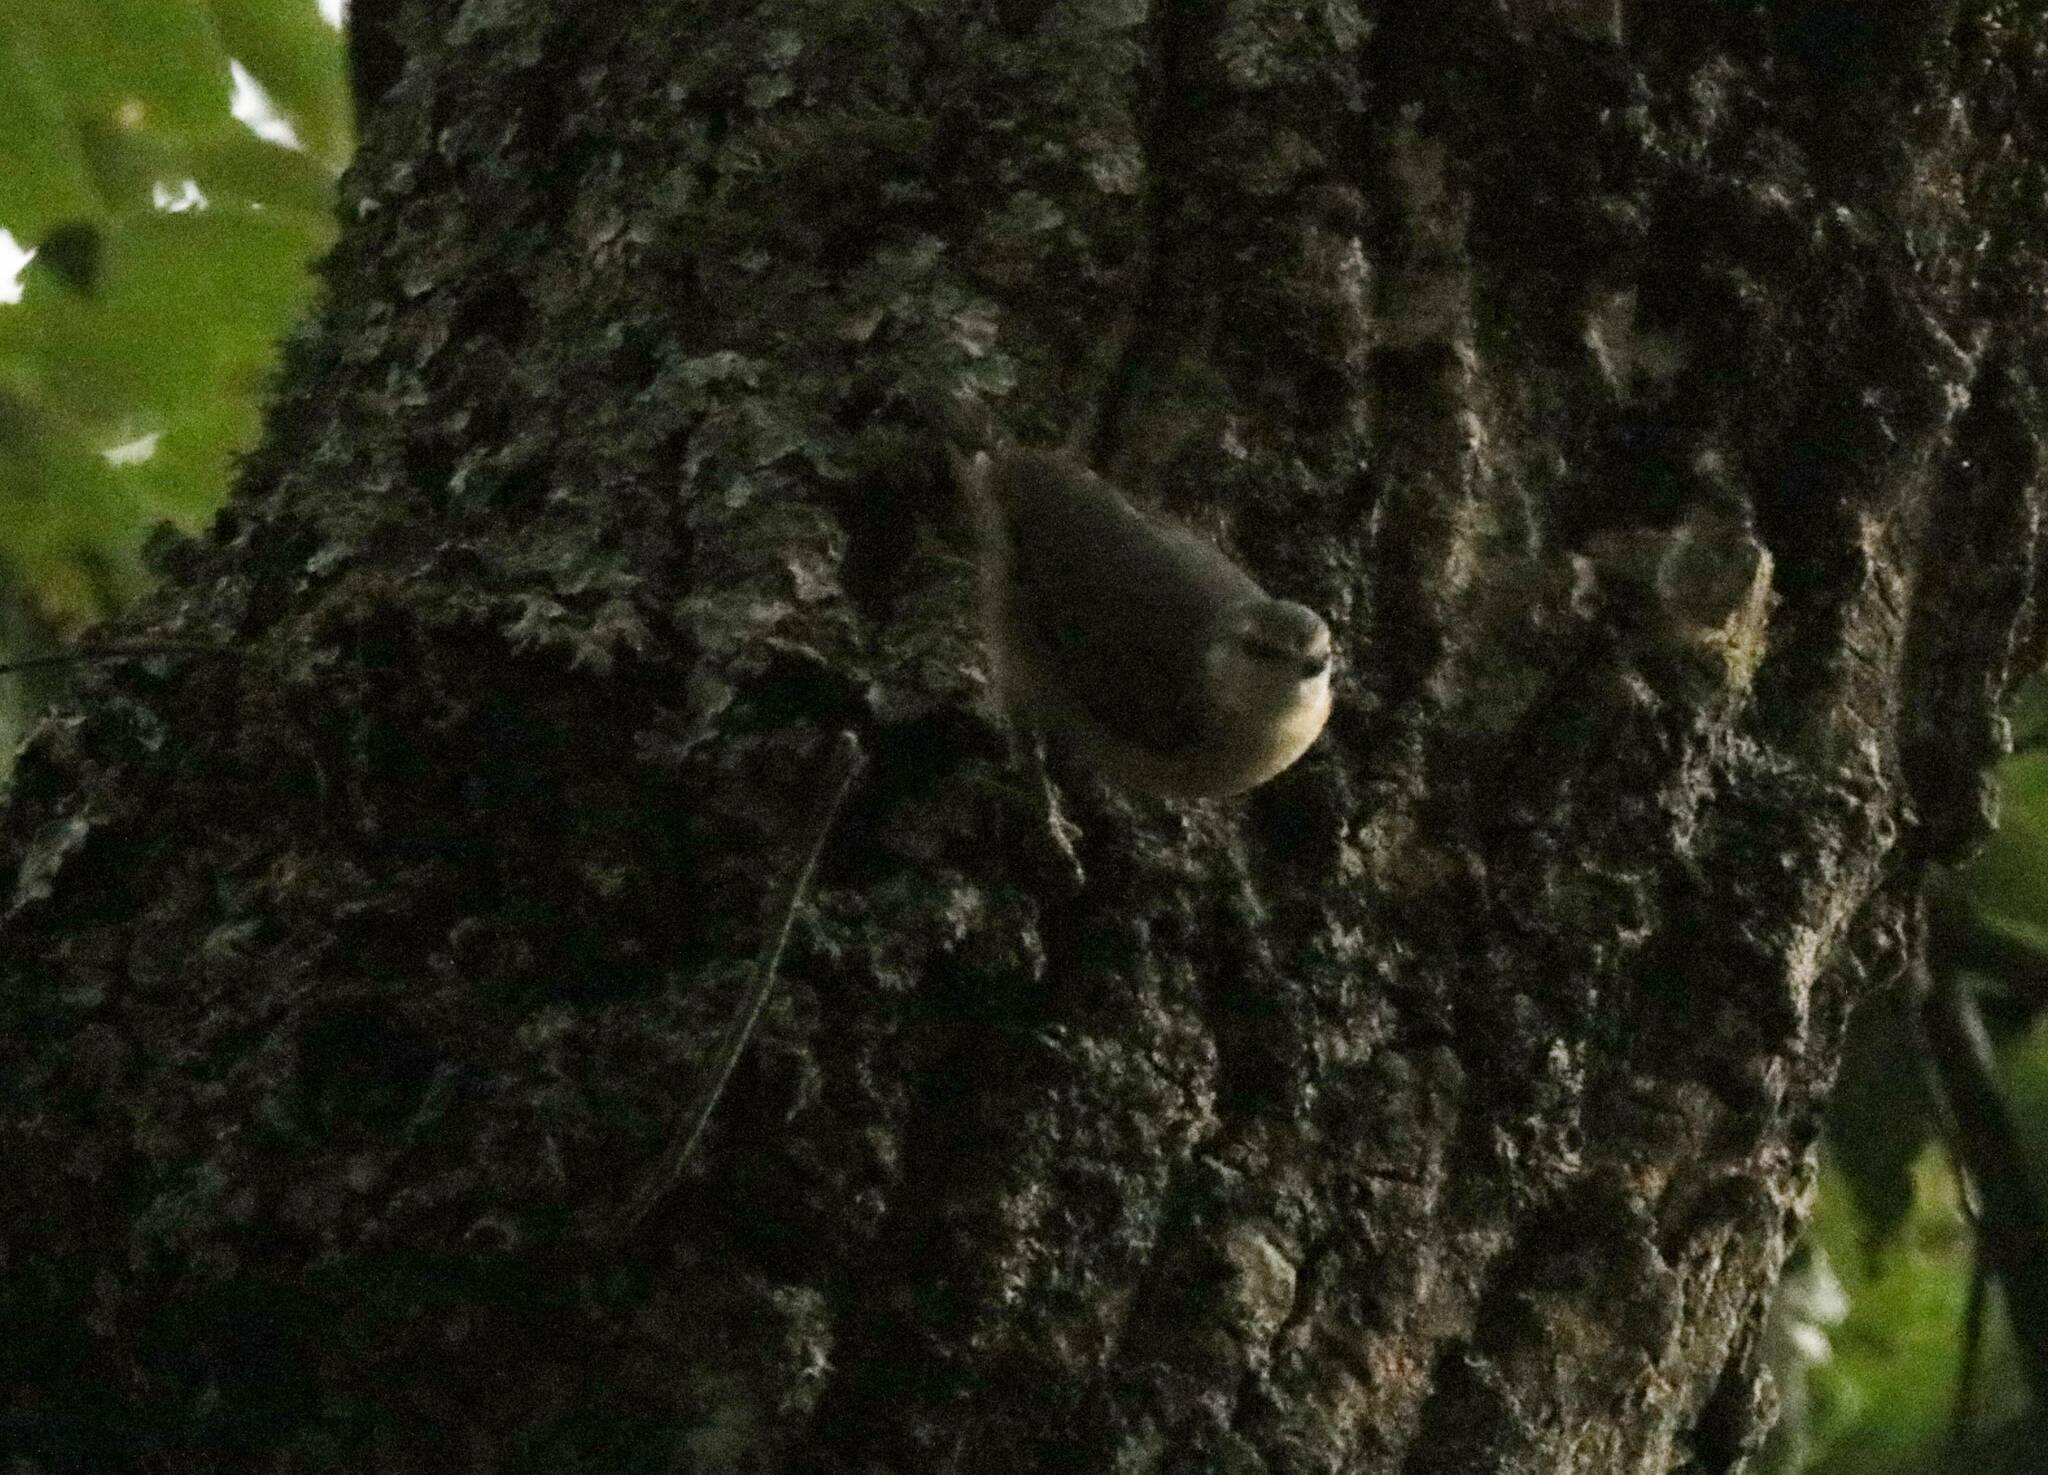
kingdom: Animalia
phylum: Chordata
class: Aves
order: Passeriformes
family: Sittidae
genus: Sitta
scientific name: Sitta ledanti
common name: Algerian nuthatch
